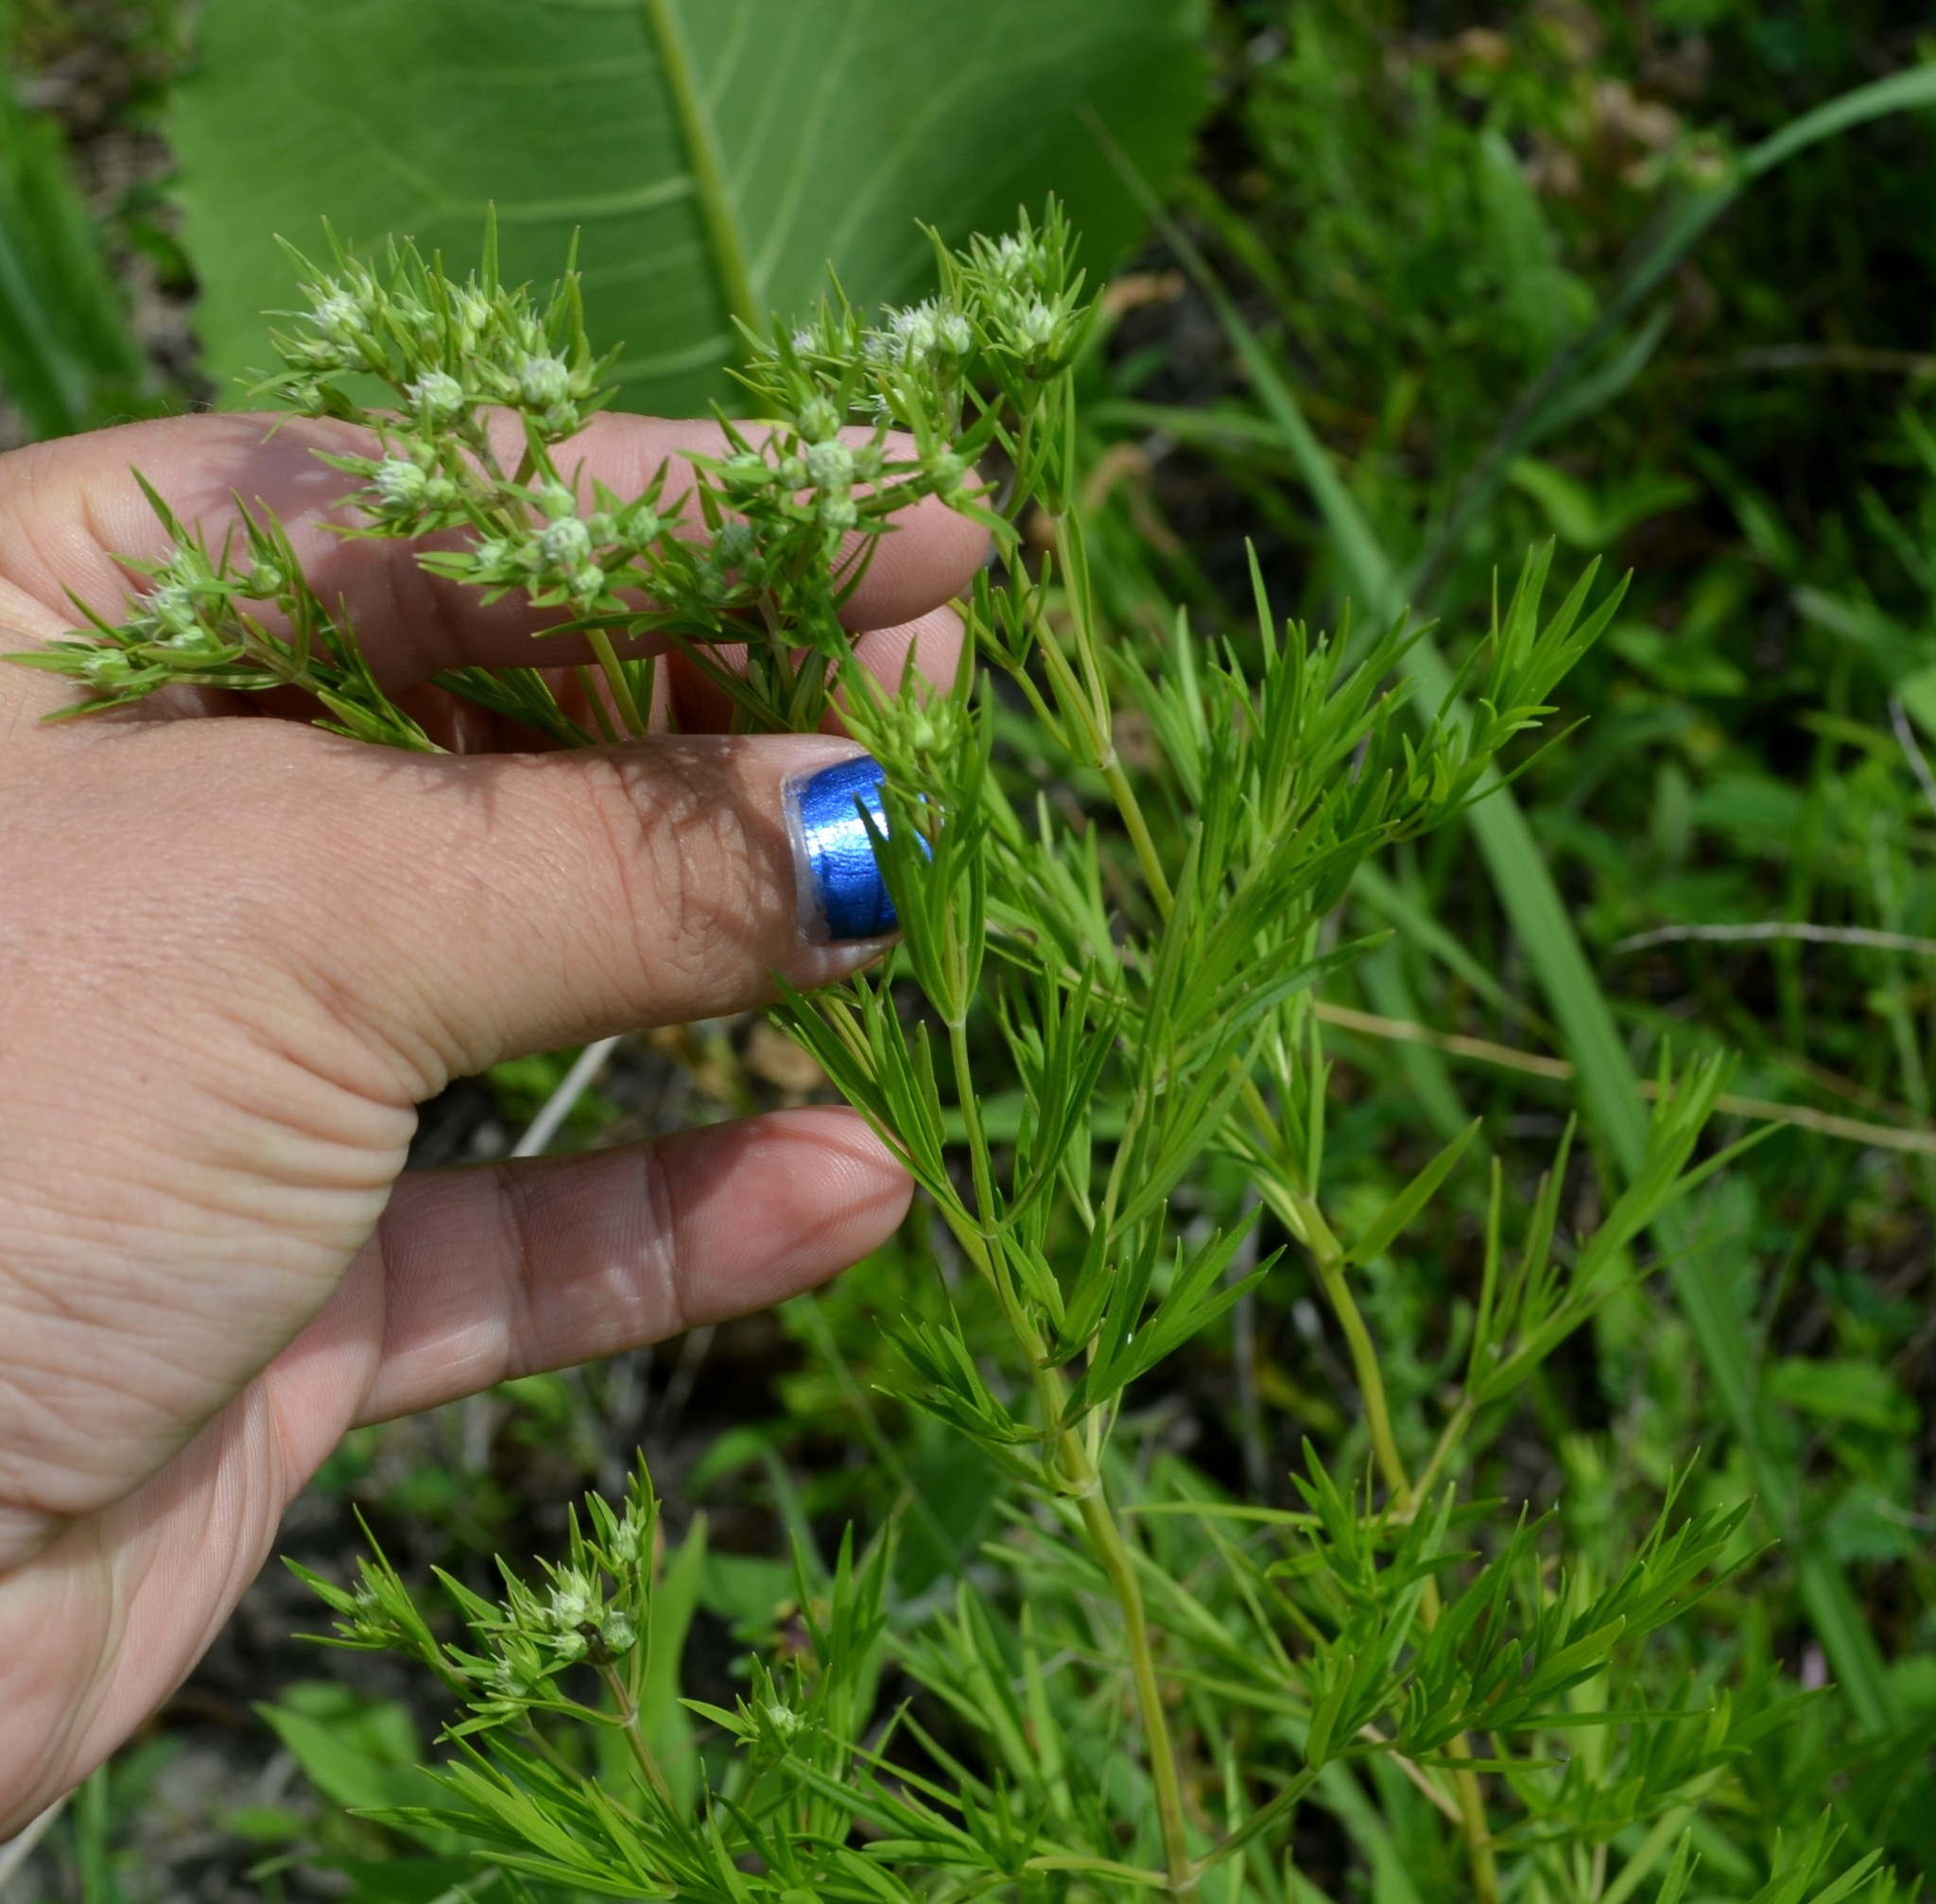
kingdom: Plantae
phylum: Tracheophyta
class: Magnoliopsida
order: Lamiales
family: Lamiaceae
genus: Pycnanthemum
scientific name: Pycnanthemum tenuifolium
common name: Narrow-leaf mountain-mint
